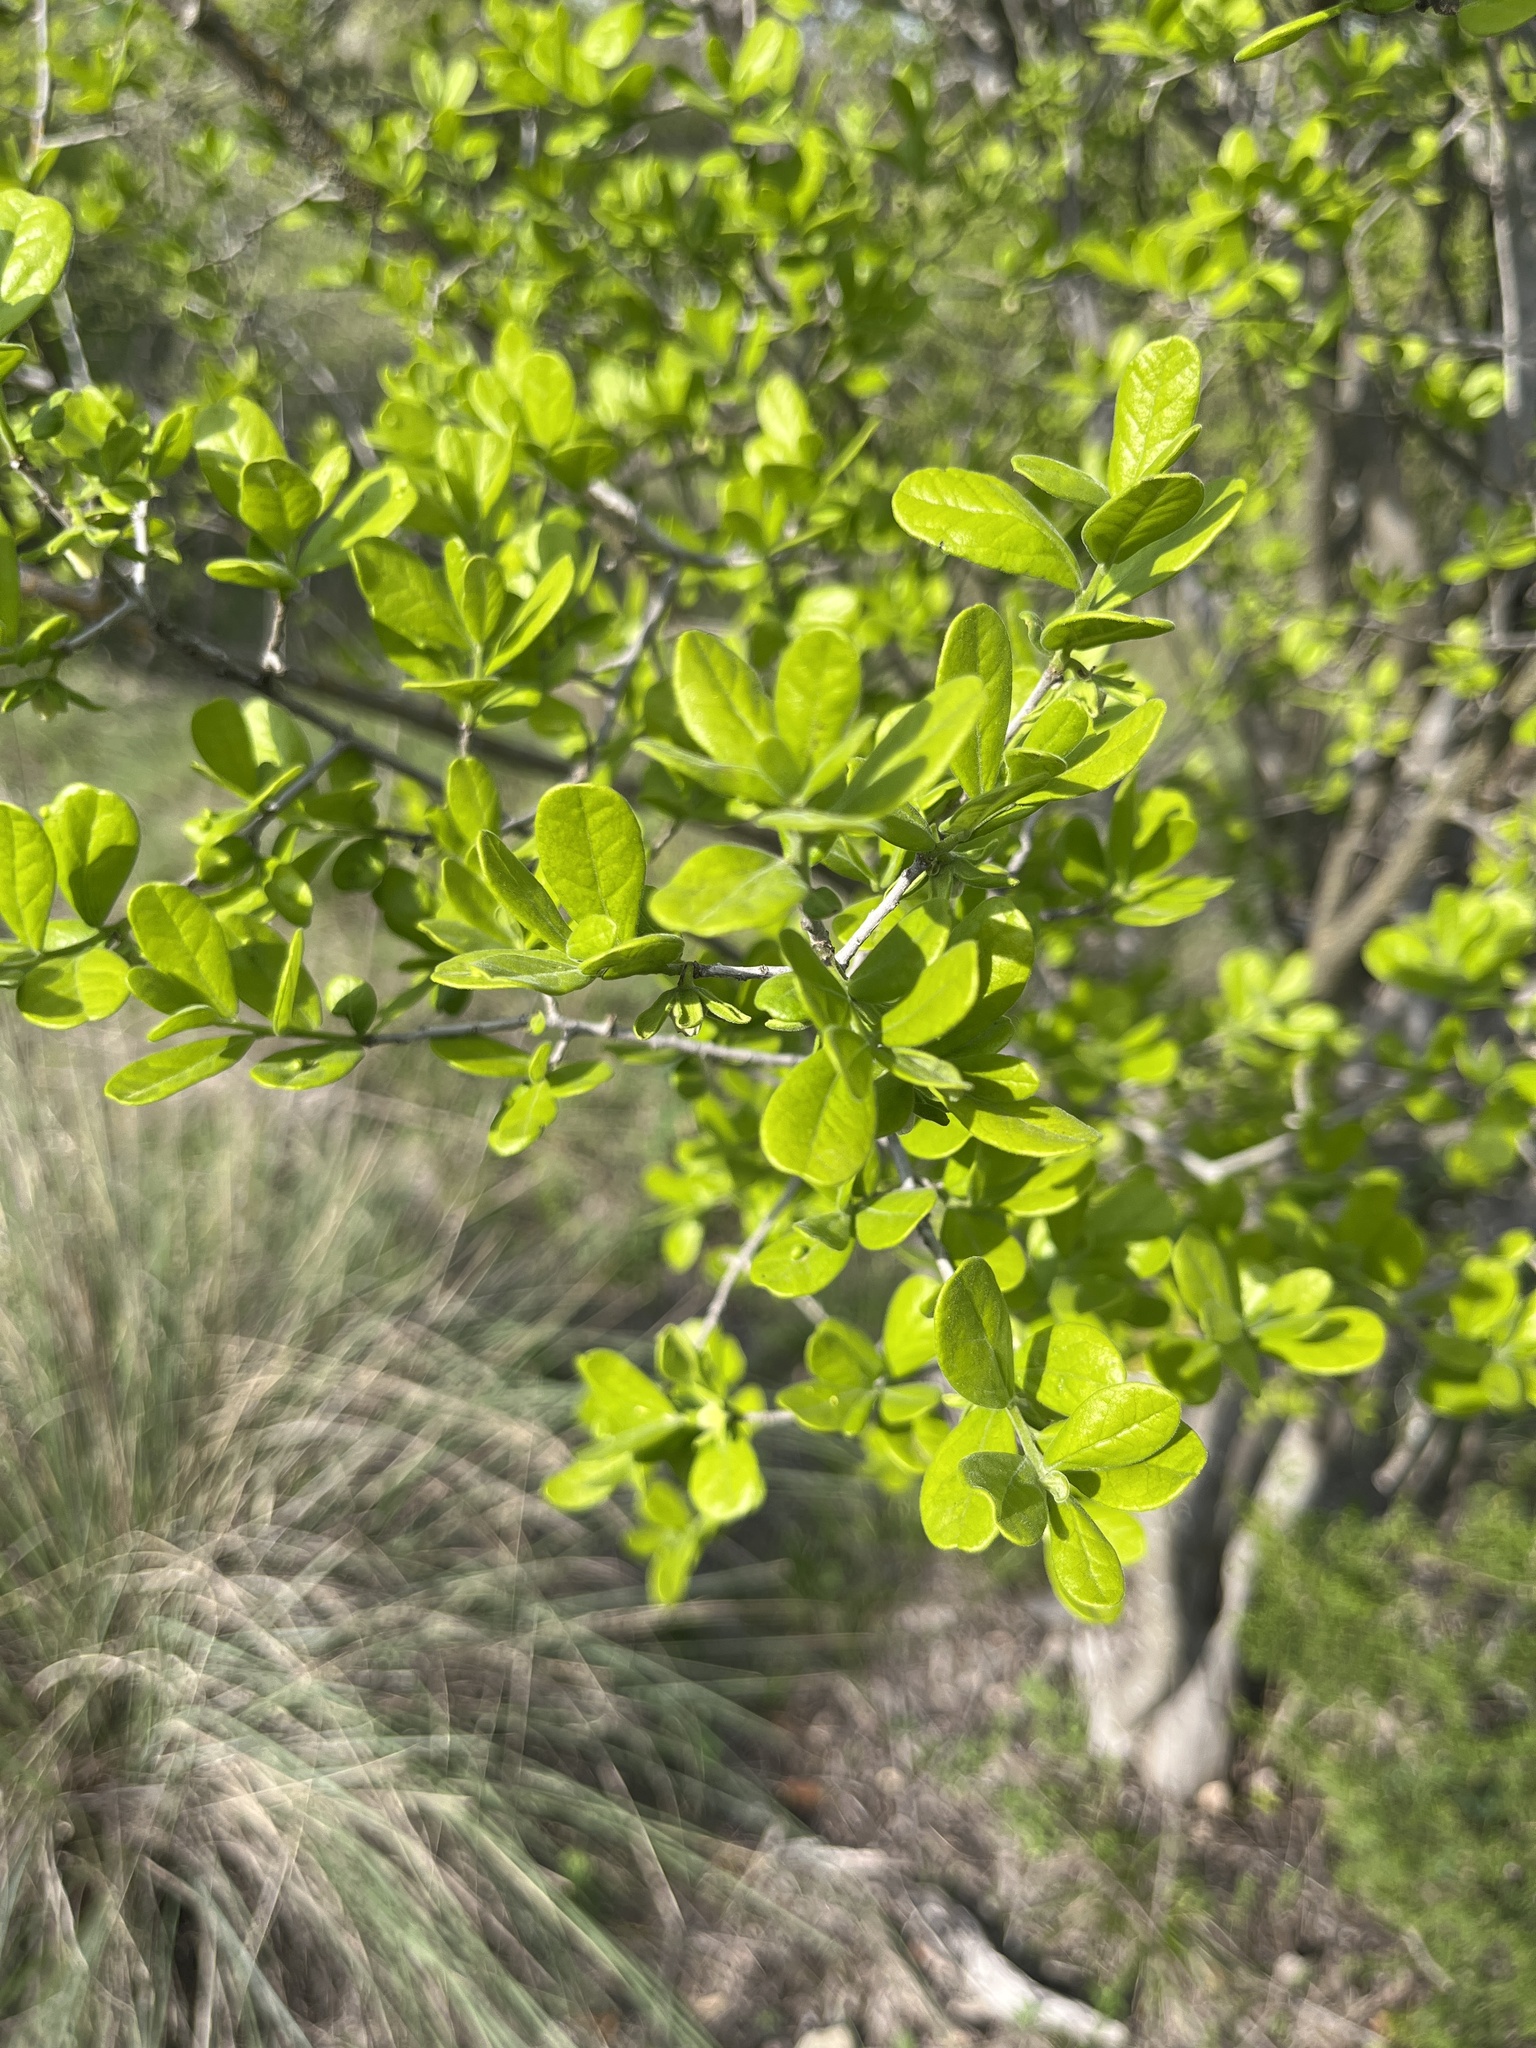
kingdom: Plantae
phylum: Tracheophyta
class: Magnoliopsida
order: Ericales
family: Ebenaceae
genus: Diospyros
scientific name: Diospyros texana
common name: Texas persimmon
